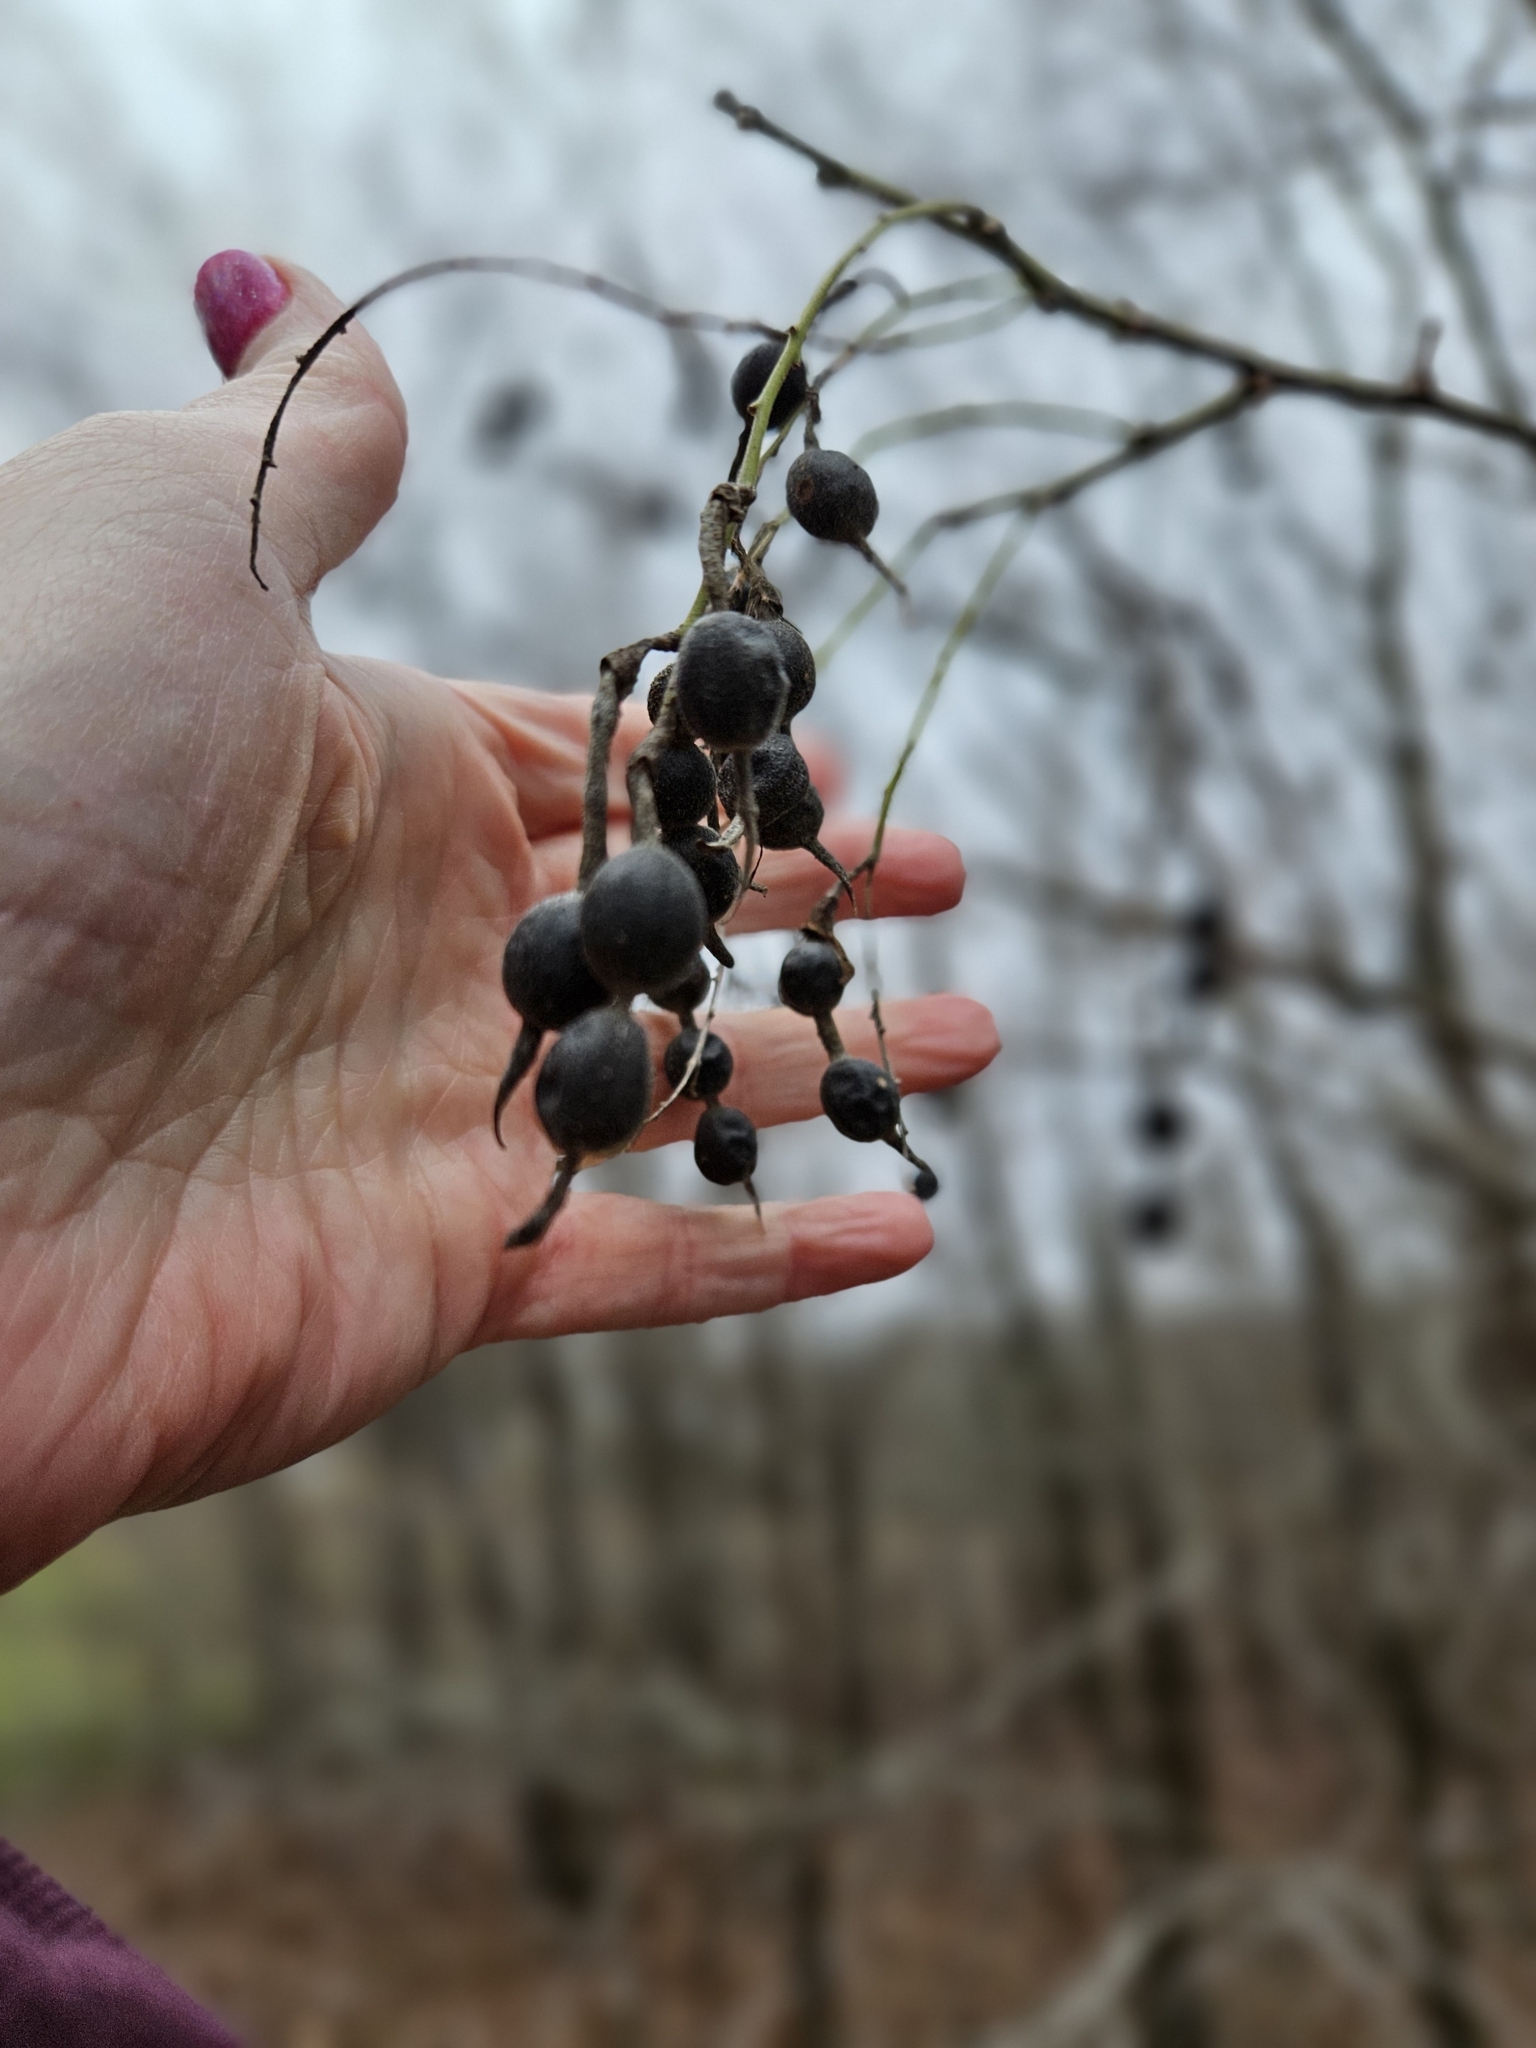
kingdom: Plantae
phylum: Tracheophyta
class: Magnoliopsida
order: Fabales
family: Fabaceae
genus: Styphnolobium
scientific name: Styphnolobium affine
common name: Texas sophora
